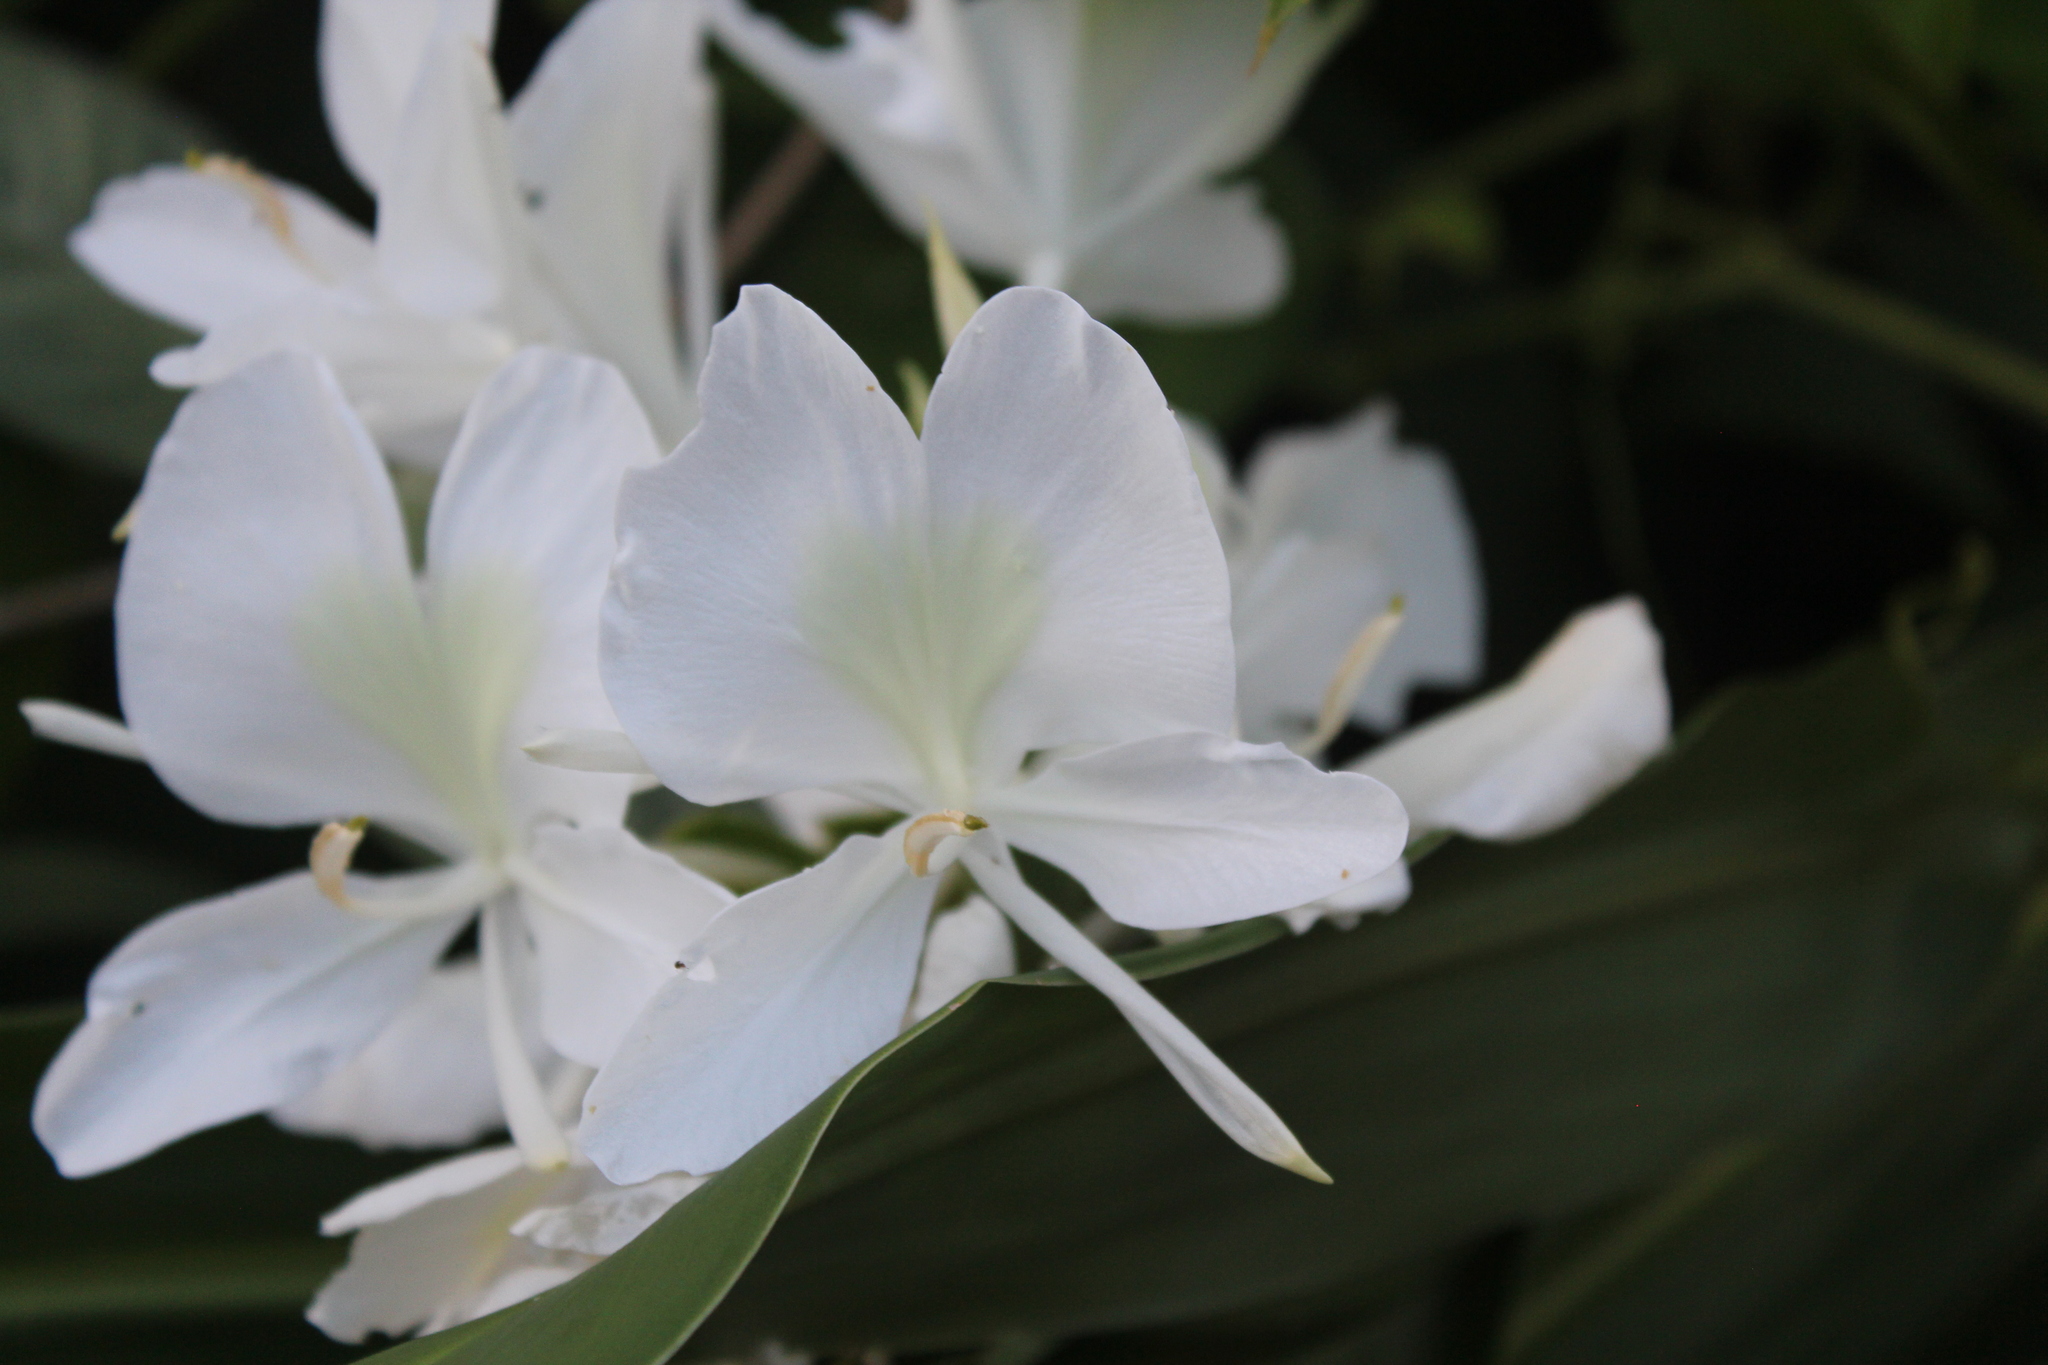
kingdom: Plantae
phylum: Tracheophyta
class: Liliopsida
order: Zingiberales
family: Zingiberaceae
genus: Hedychium
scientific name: Hedychium coronarium
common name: White garland-lily
